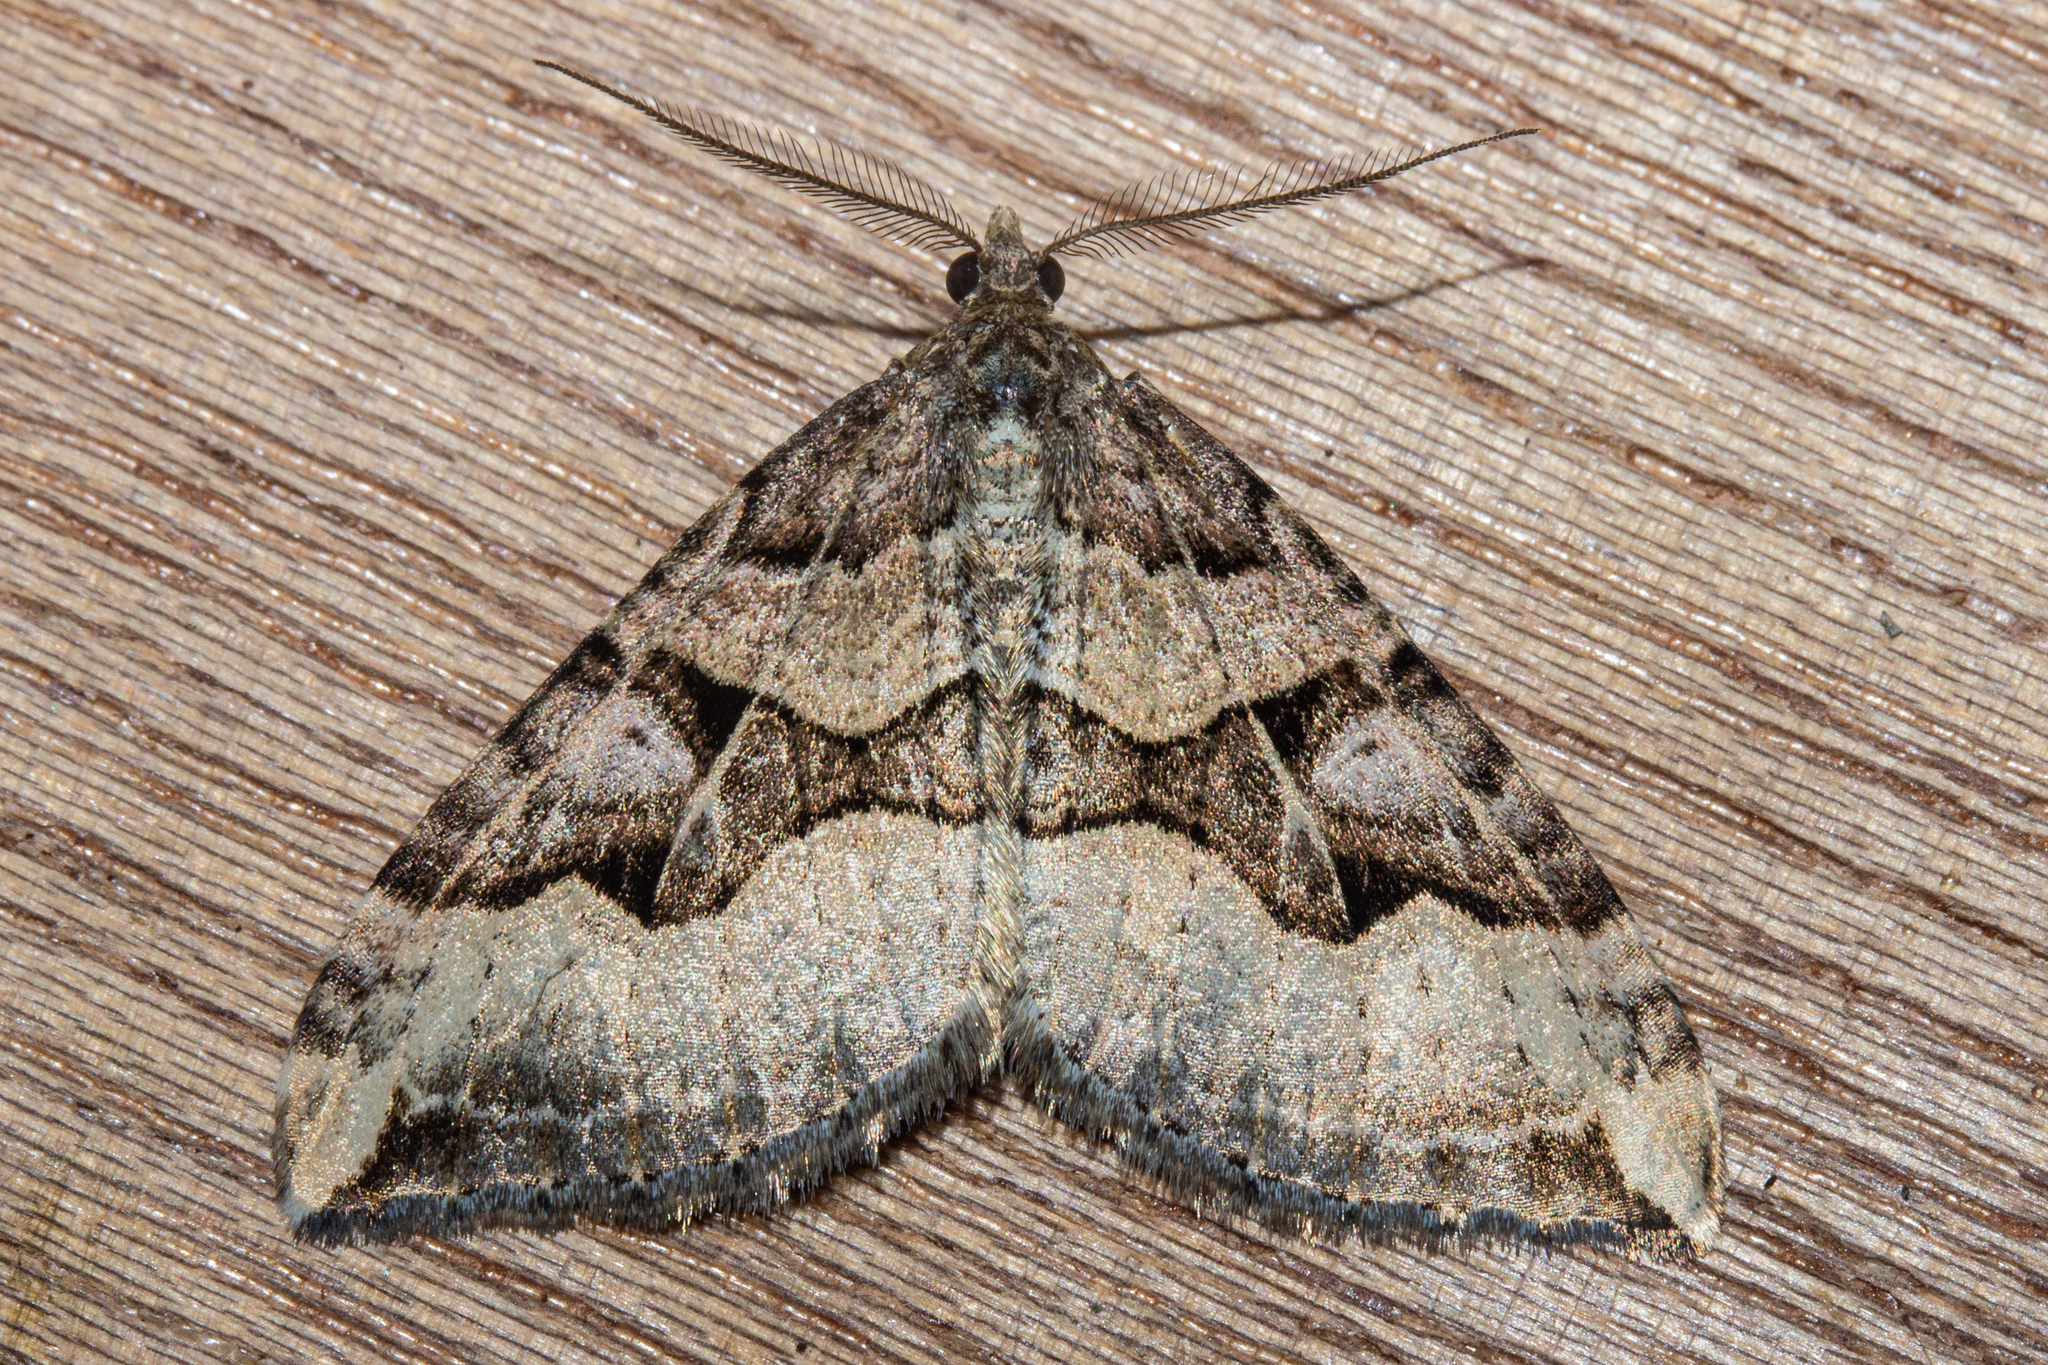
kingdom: Animalia
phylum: Arthropoda
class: Insecta
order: Lepidoptera
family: Geometridae
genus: Xanthorhoe
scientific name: Xanthorhoe semifissata
